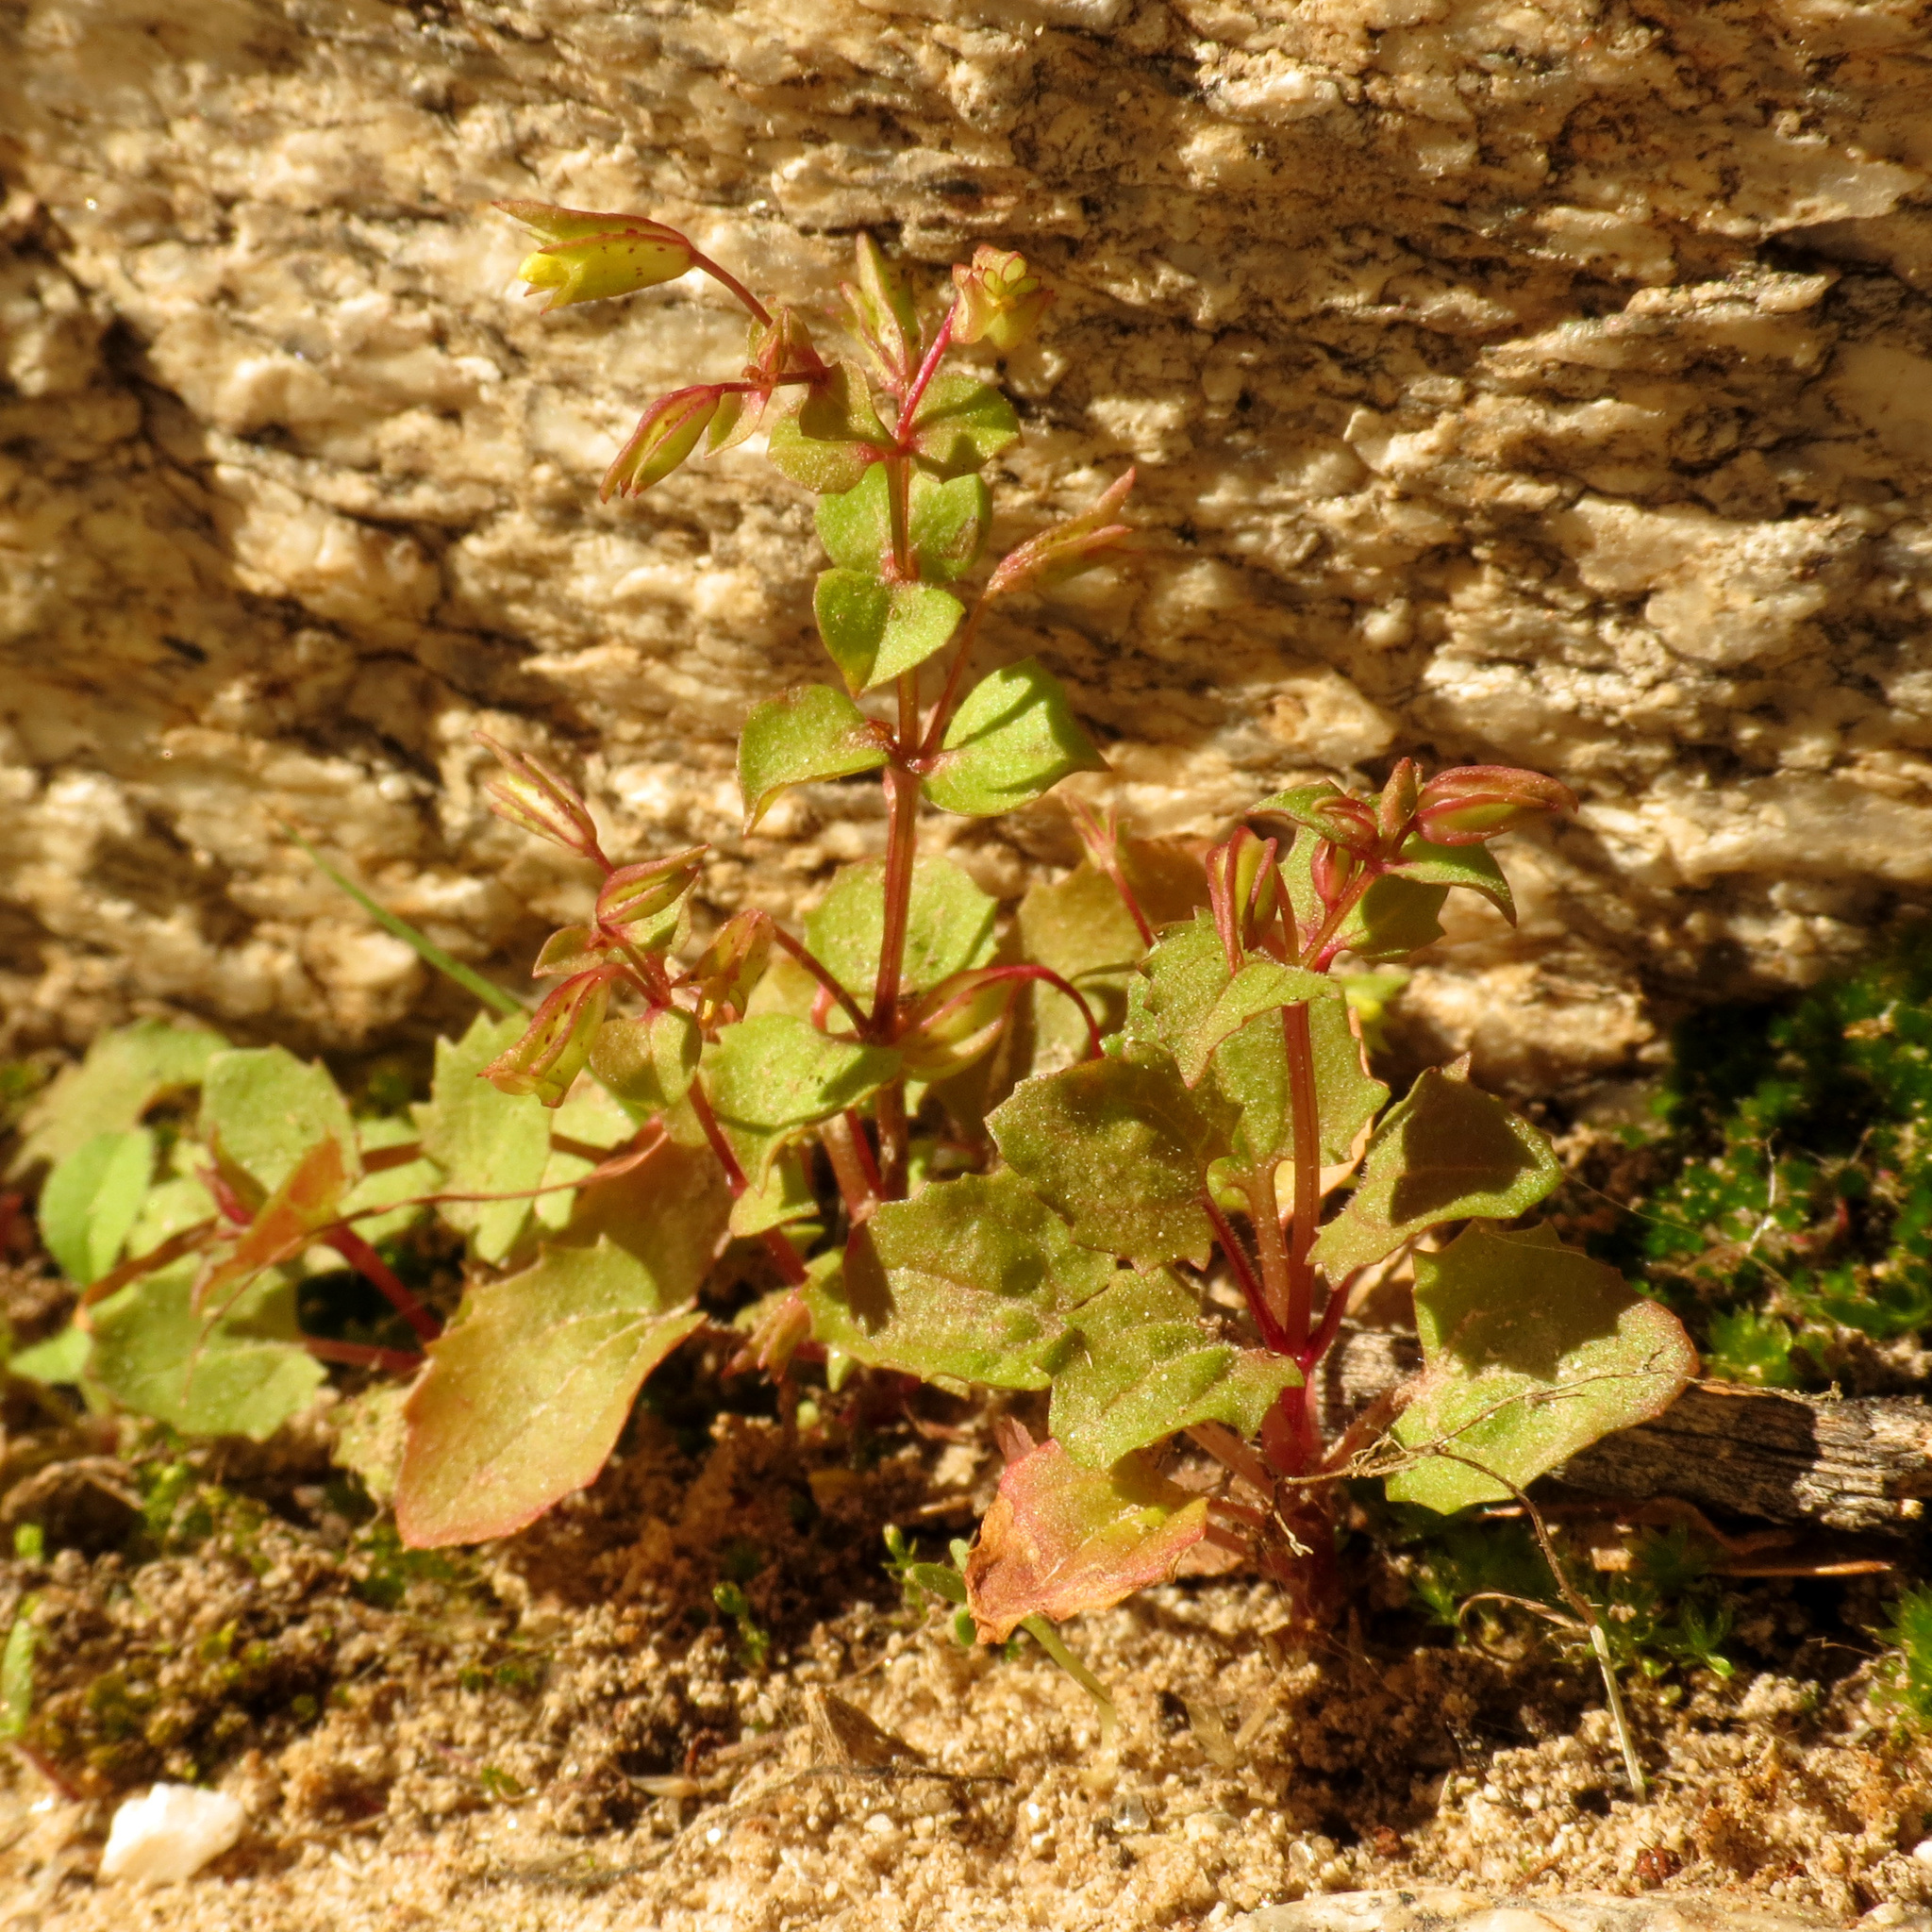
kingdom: Plantae
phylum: Tracheophyta
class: Magnoliopsida
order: Lamiales
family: Phrymaceae
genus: Erythranthe
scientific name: Erythranthe guttata
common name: Monkeyflower
